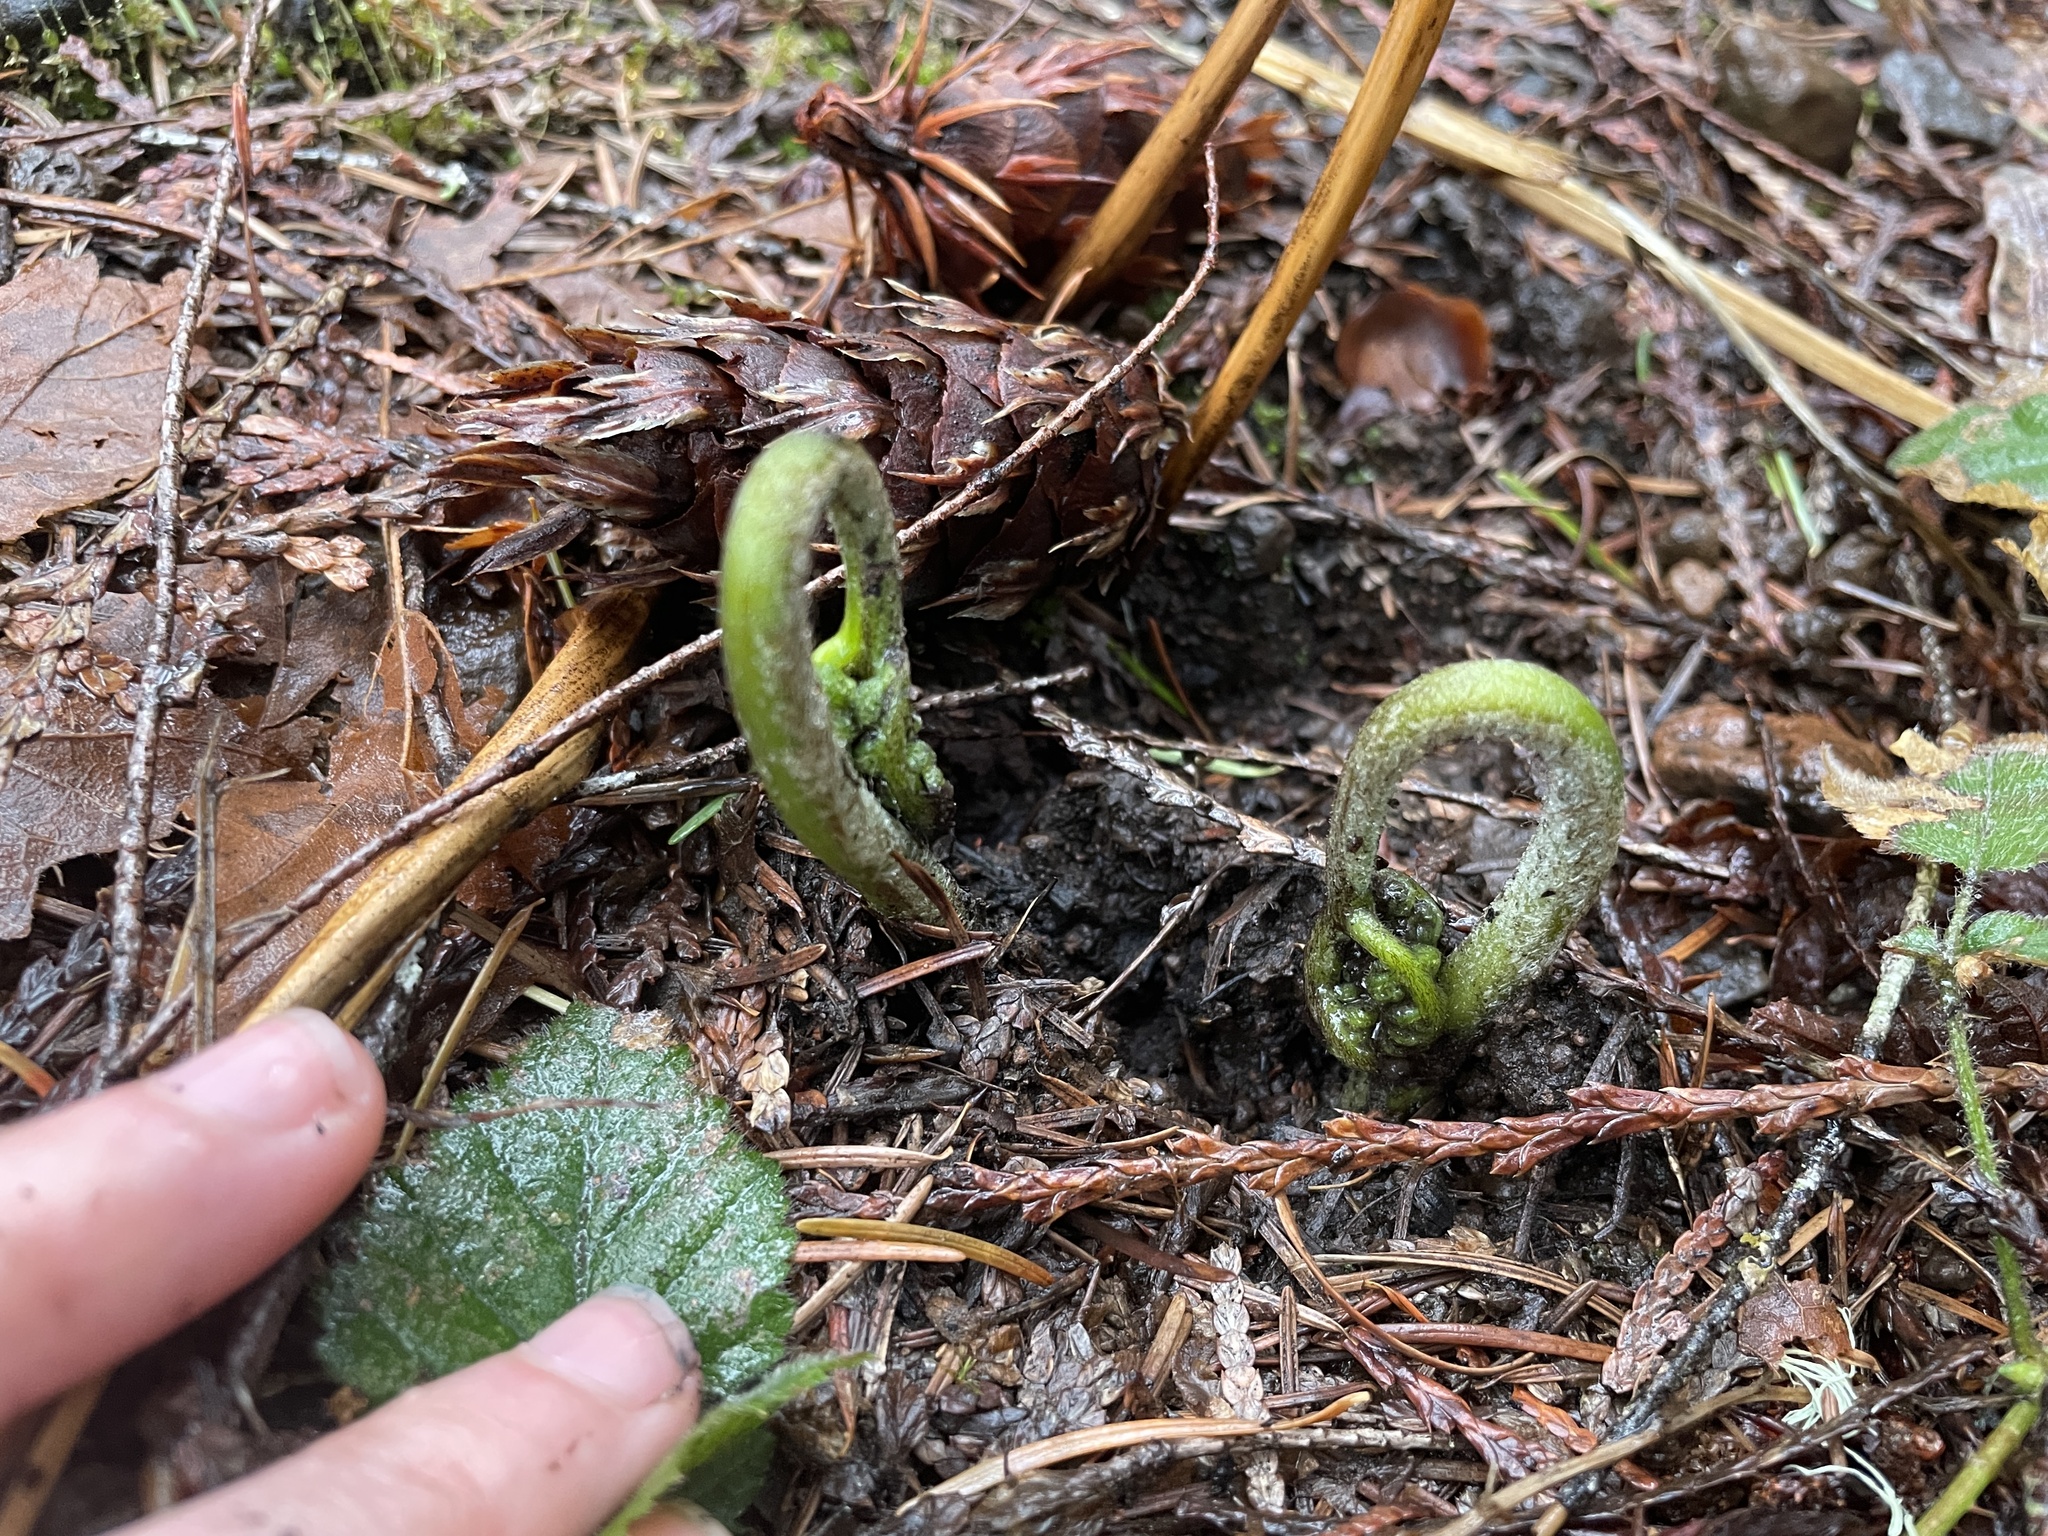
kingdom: Plantae
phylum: Tracheophyta
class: Polypodiopsida
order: Polypodiales
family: Dennstaedtiaceae
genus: Pteridium
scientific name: Pteridium aquilinum
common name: Bracken
